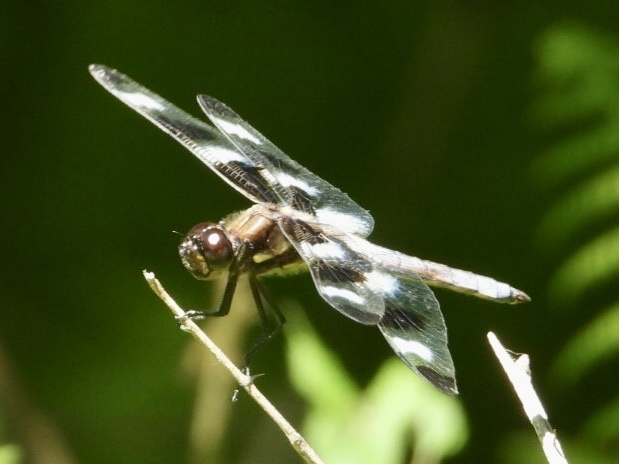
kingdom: Animalia
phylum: Arthropoda
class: Insecta
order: Odonata
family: Libellulidae
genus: Libellula
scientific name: Libellula pulchella
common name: Twelve-spotted skimmer
